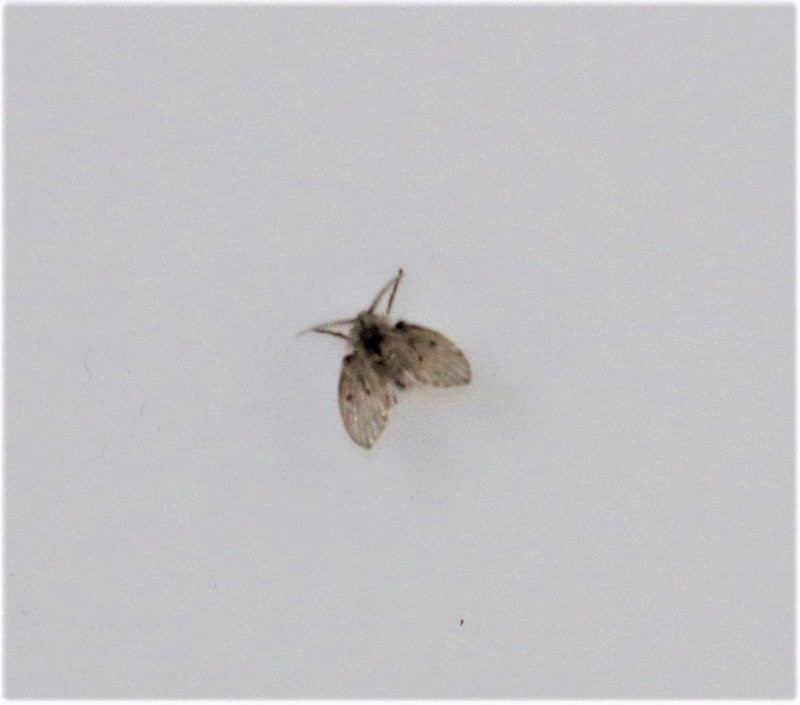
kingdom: Animalia
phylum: Arthropoda
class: Insecta
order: Diptera
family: Psychodidae
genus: Clogmia
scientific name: Clogmia albipunctatus
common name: White-spotted moth fly
